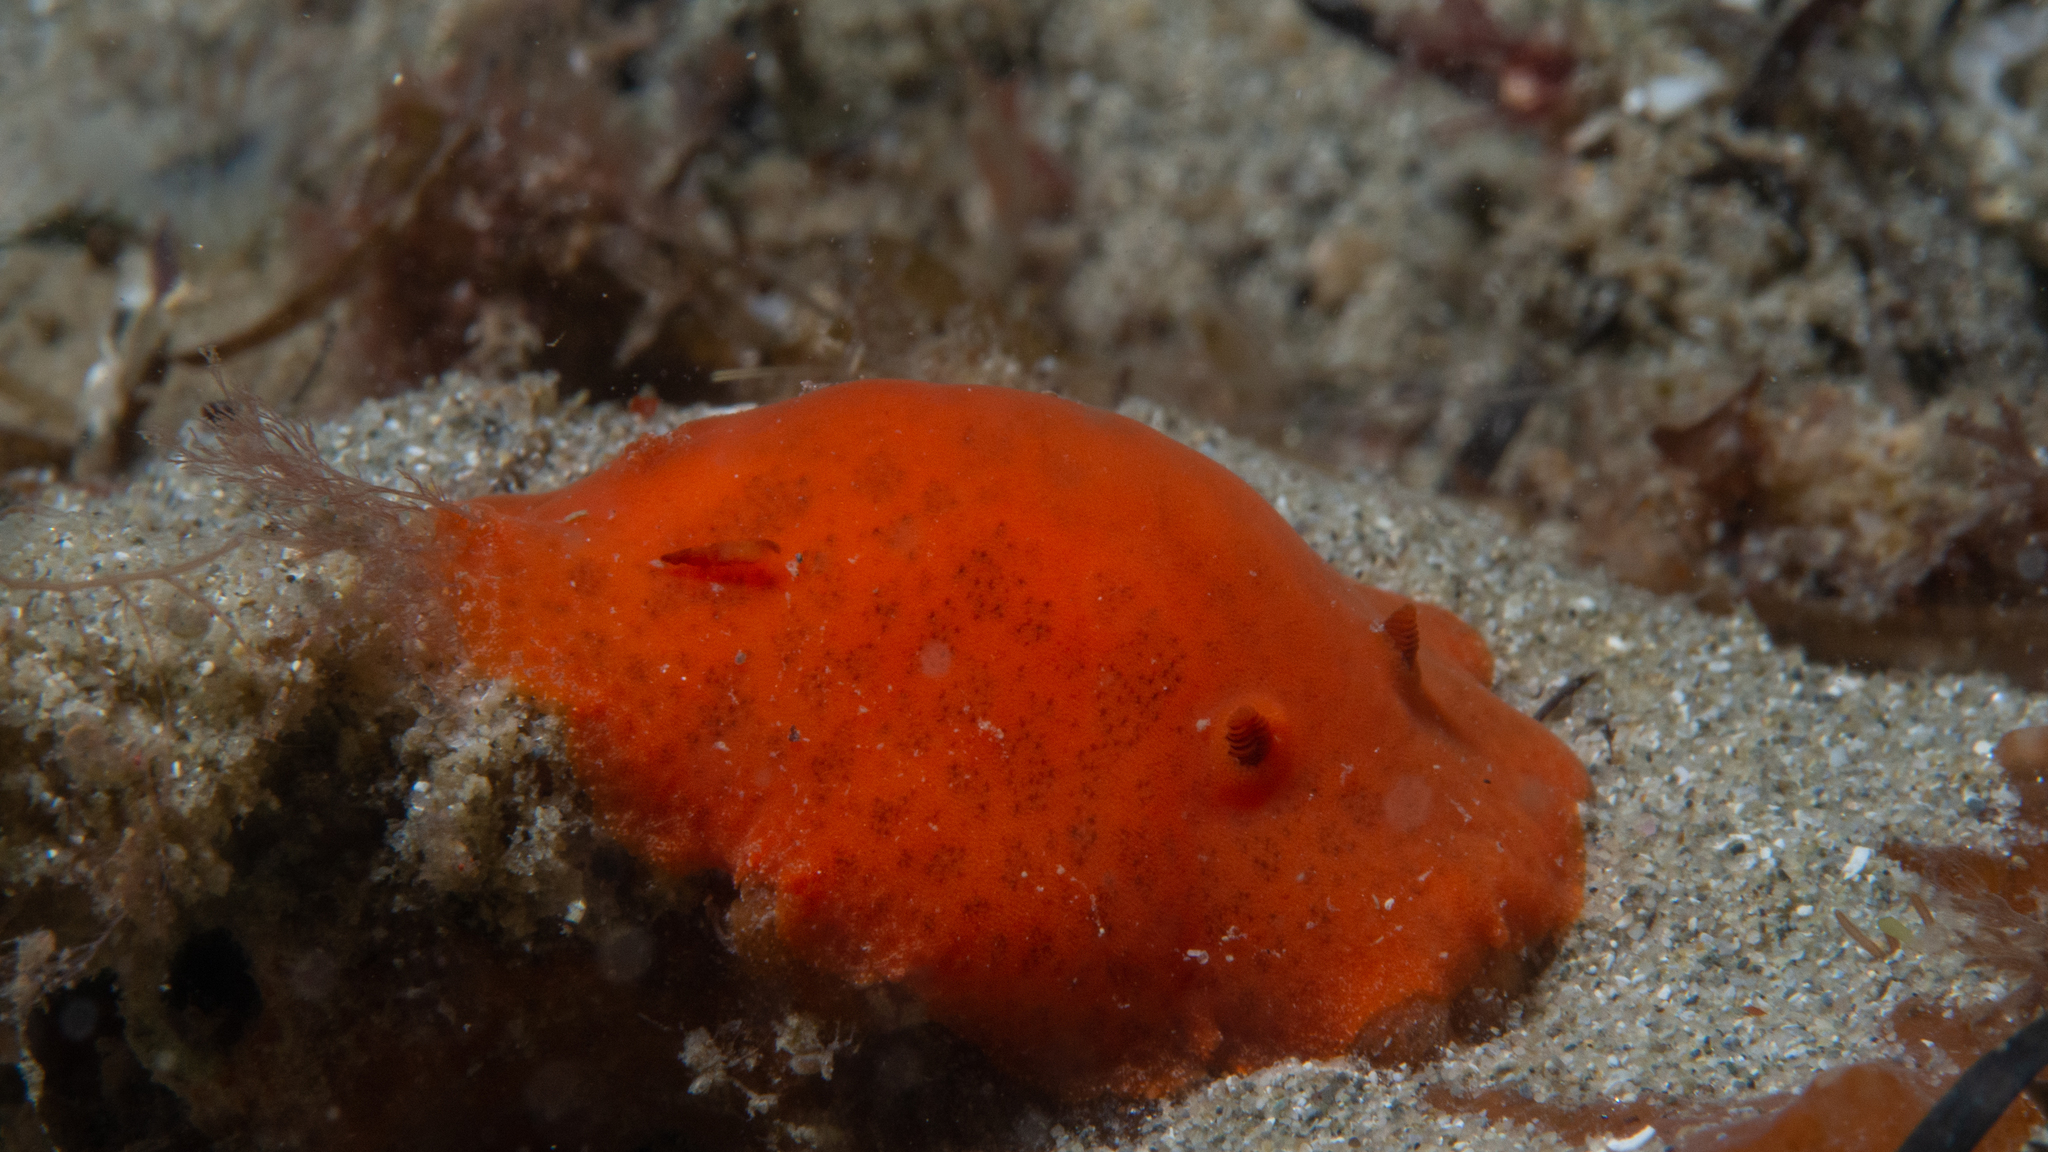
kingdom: Animalia
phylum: Mollusca
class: Gastropoda
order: Nudibranchia
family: Discodorididae
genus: Discodoris
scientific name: Discodoris paroa
